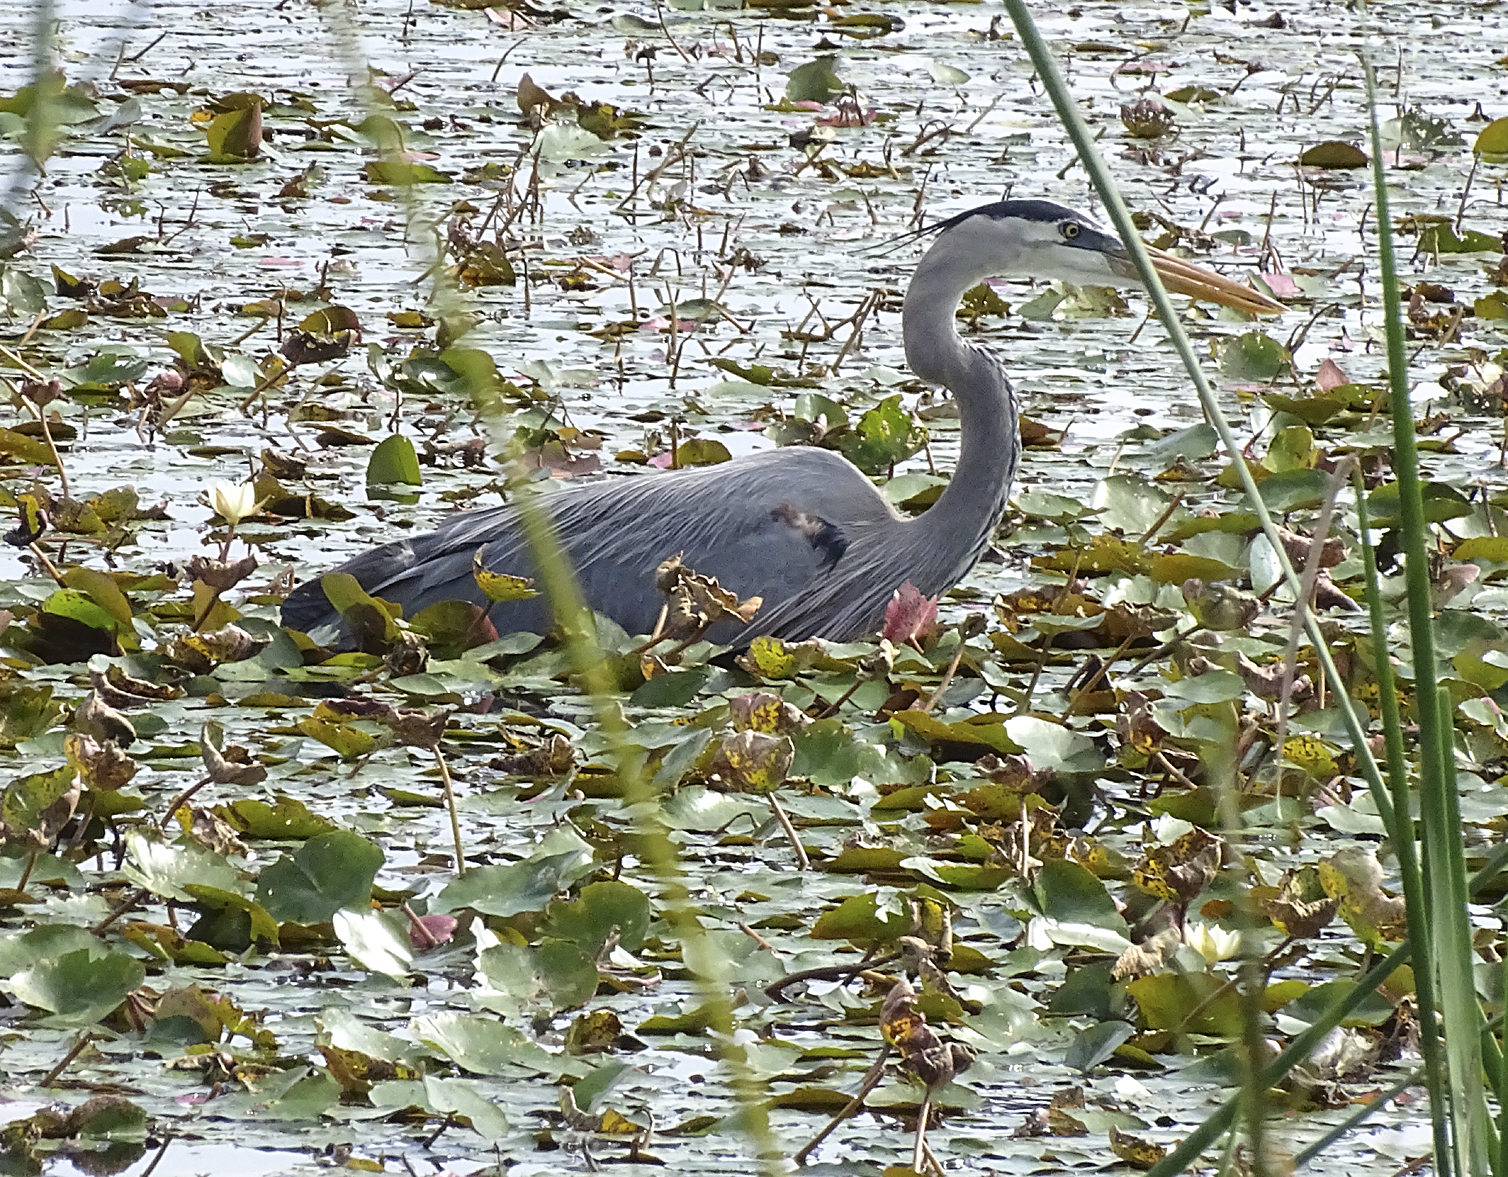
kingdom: Animalia
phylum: Chordata
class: Aves
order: Pelecaniformes
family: Ardeidae
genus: Ardea
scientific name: Ardea herodias
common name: Great blue heron
